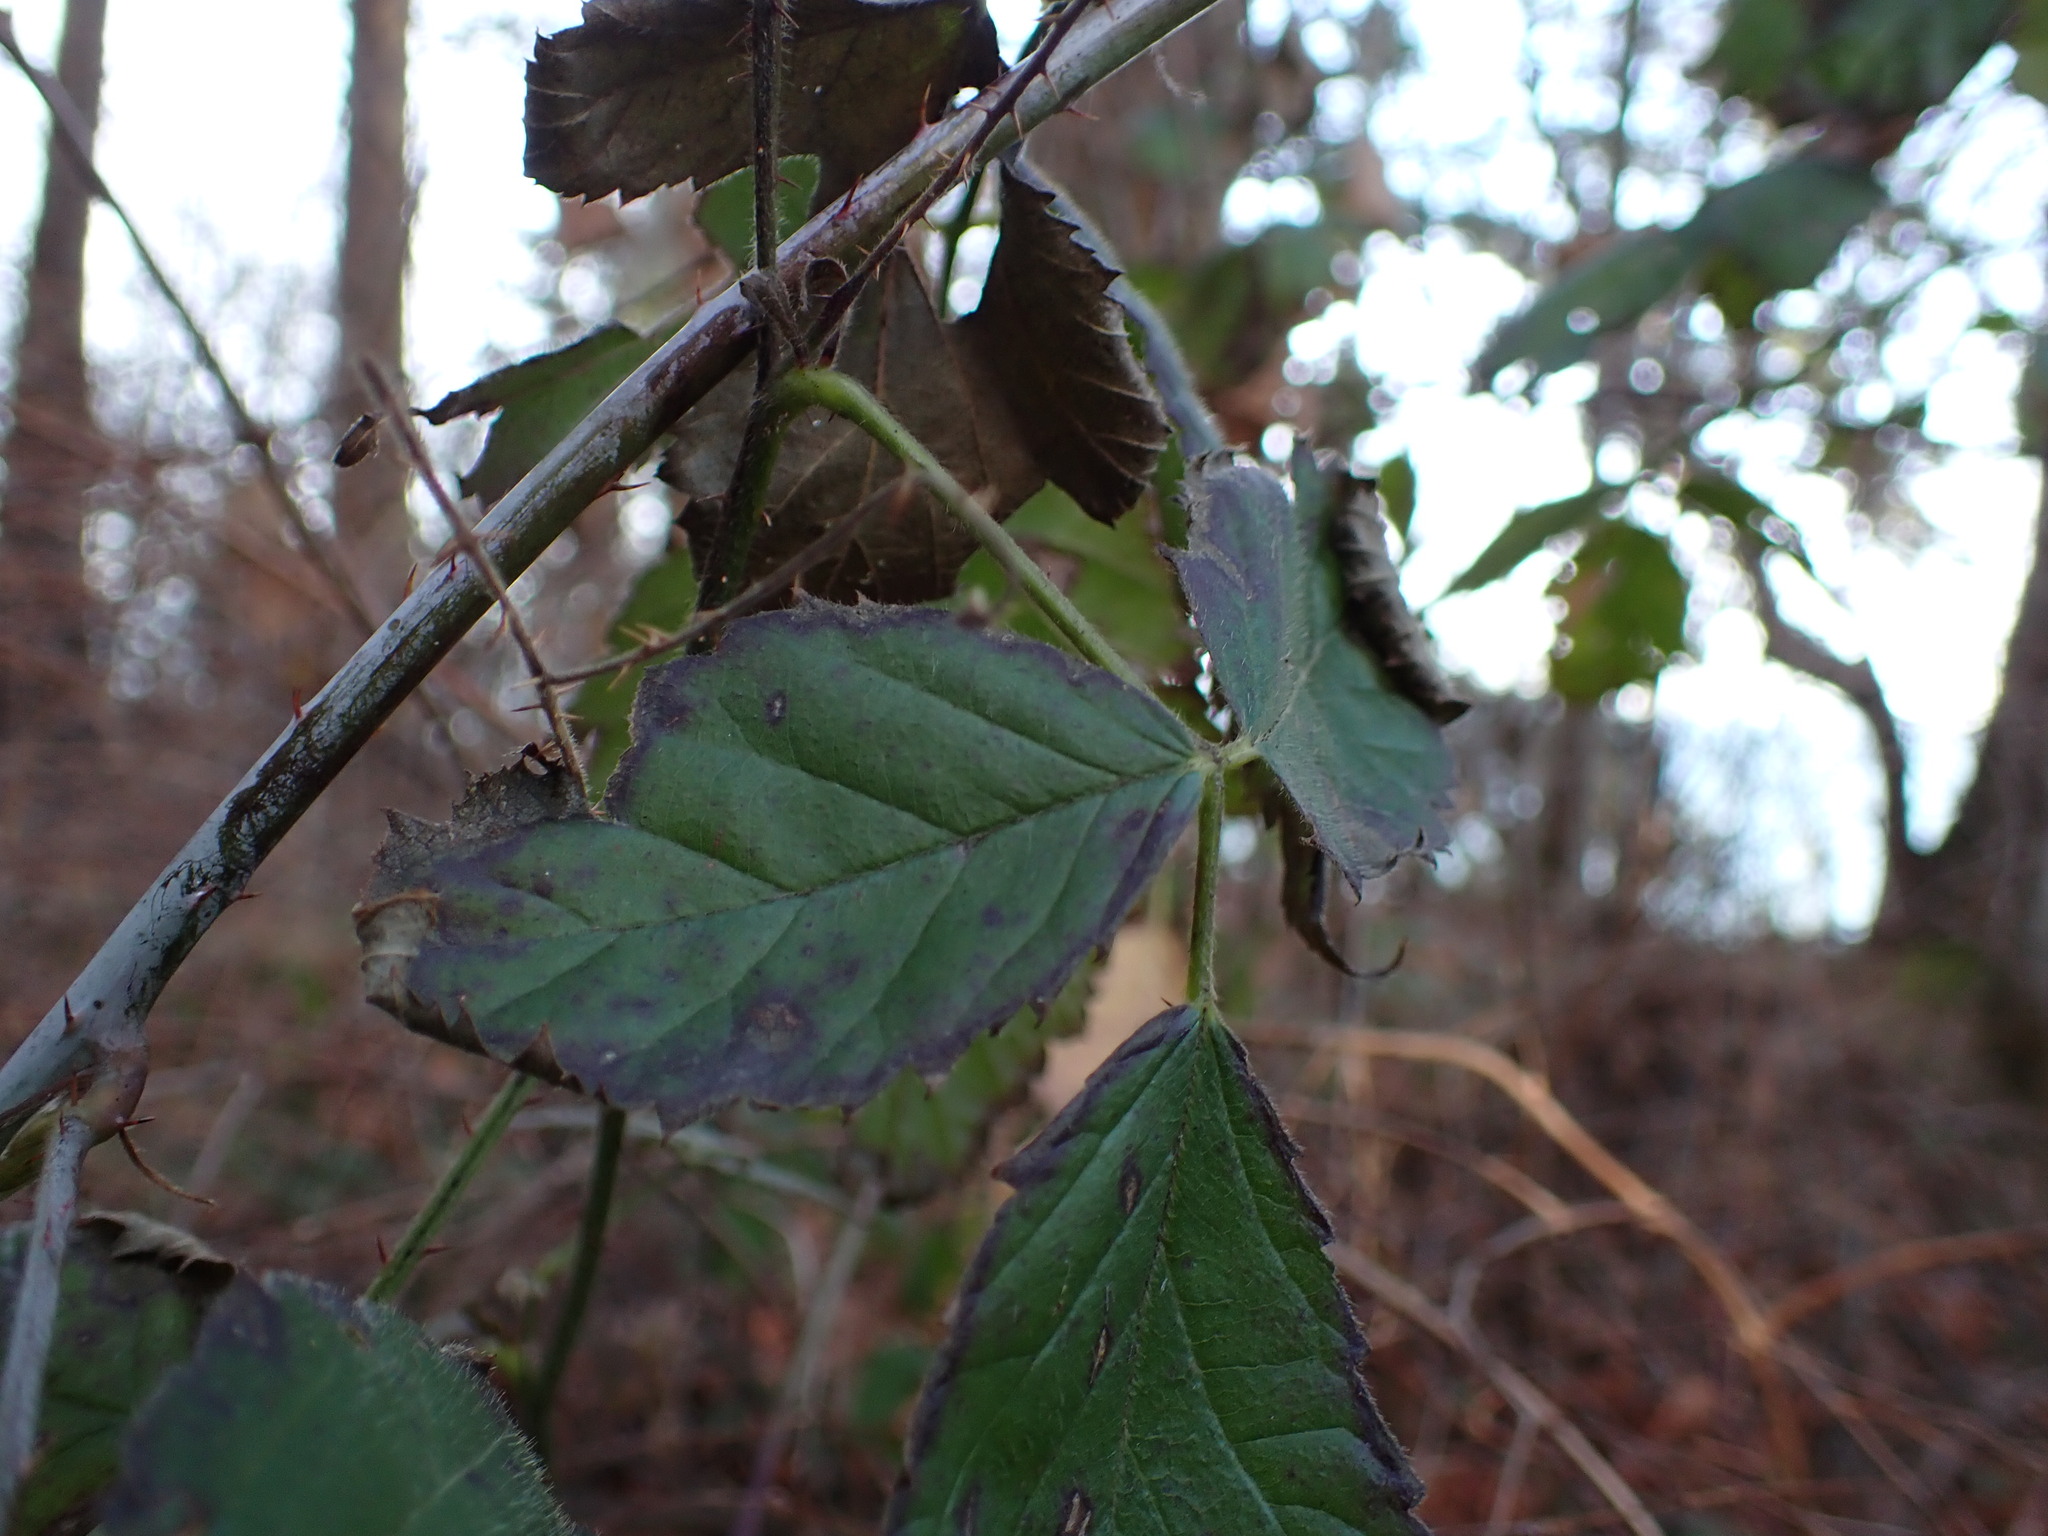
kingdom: Plantae
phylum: Tracheophyta
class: Magnoliopsida
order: Rosales
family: Rosaceae
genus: Rubus
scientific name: Rubus ursinus
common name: Pacific blackberry
